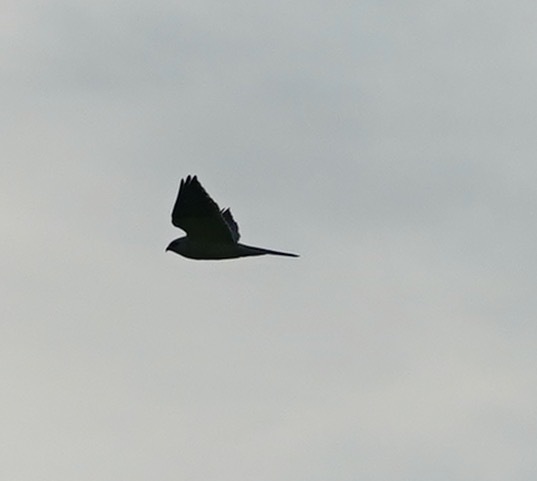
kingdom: Animalia
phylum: Chordata
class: Aves
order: Accipitriformes
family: Accipitridae
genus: Elanus
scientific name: Elanus leucurus
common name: White-tailed kite
